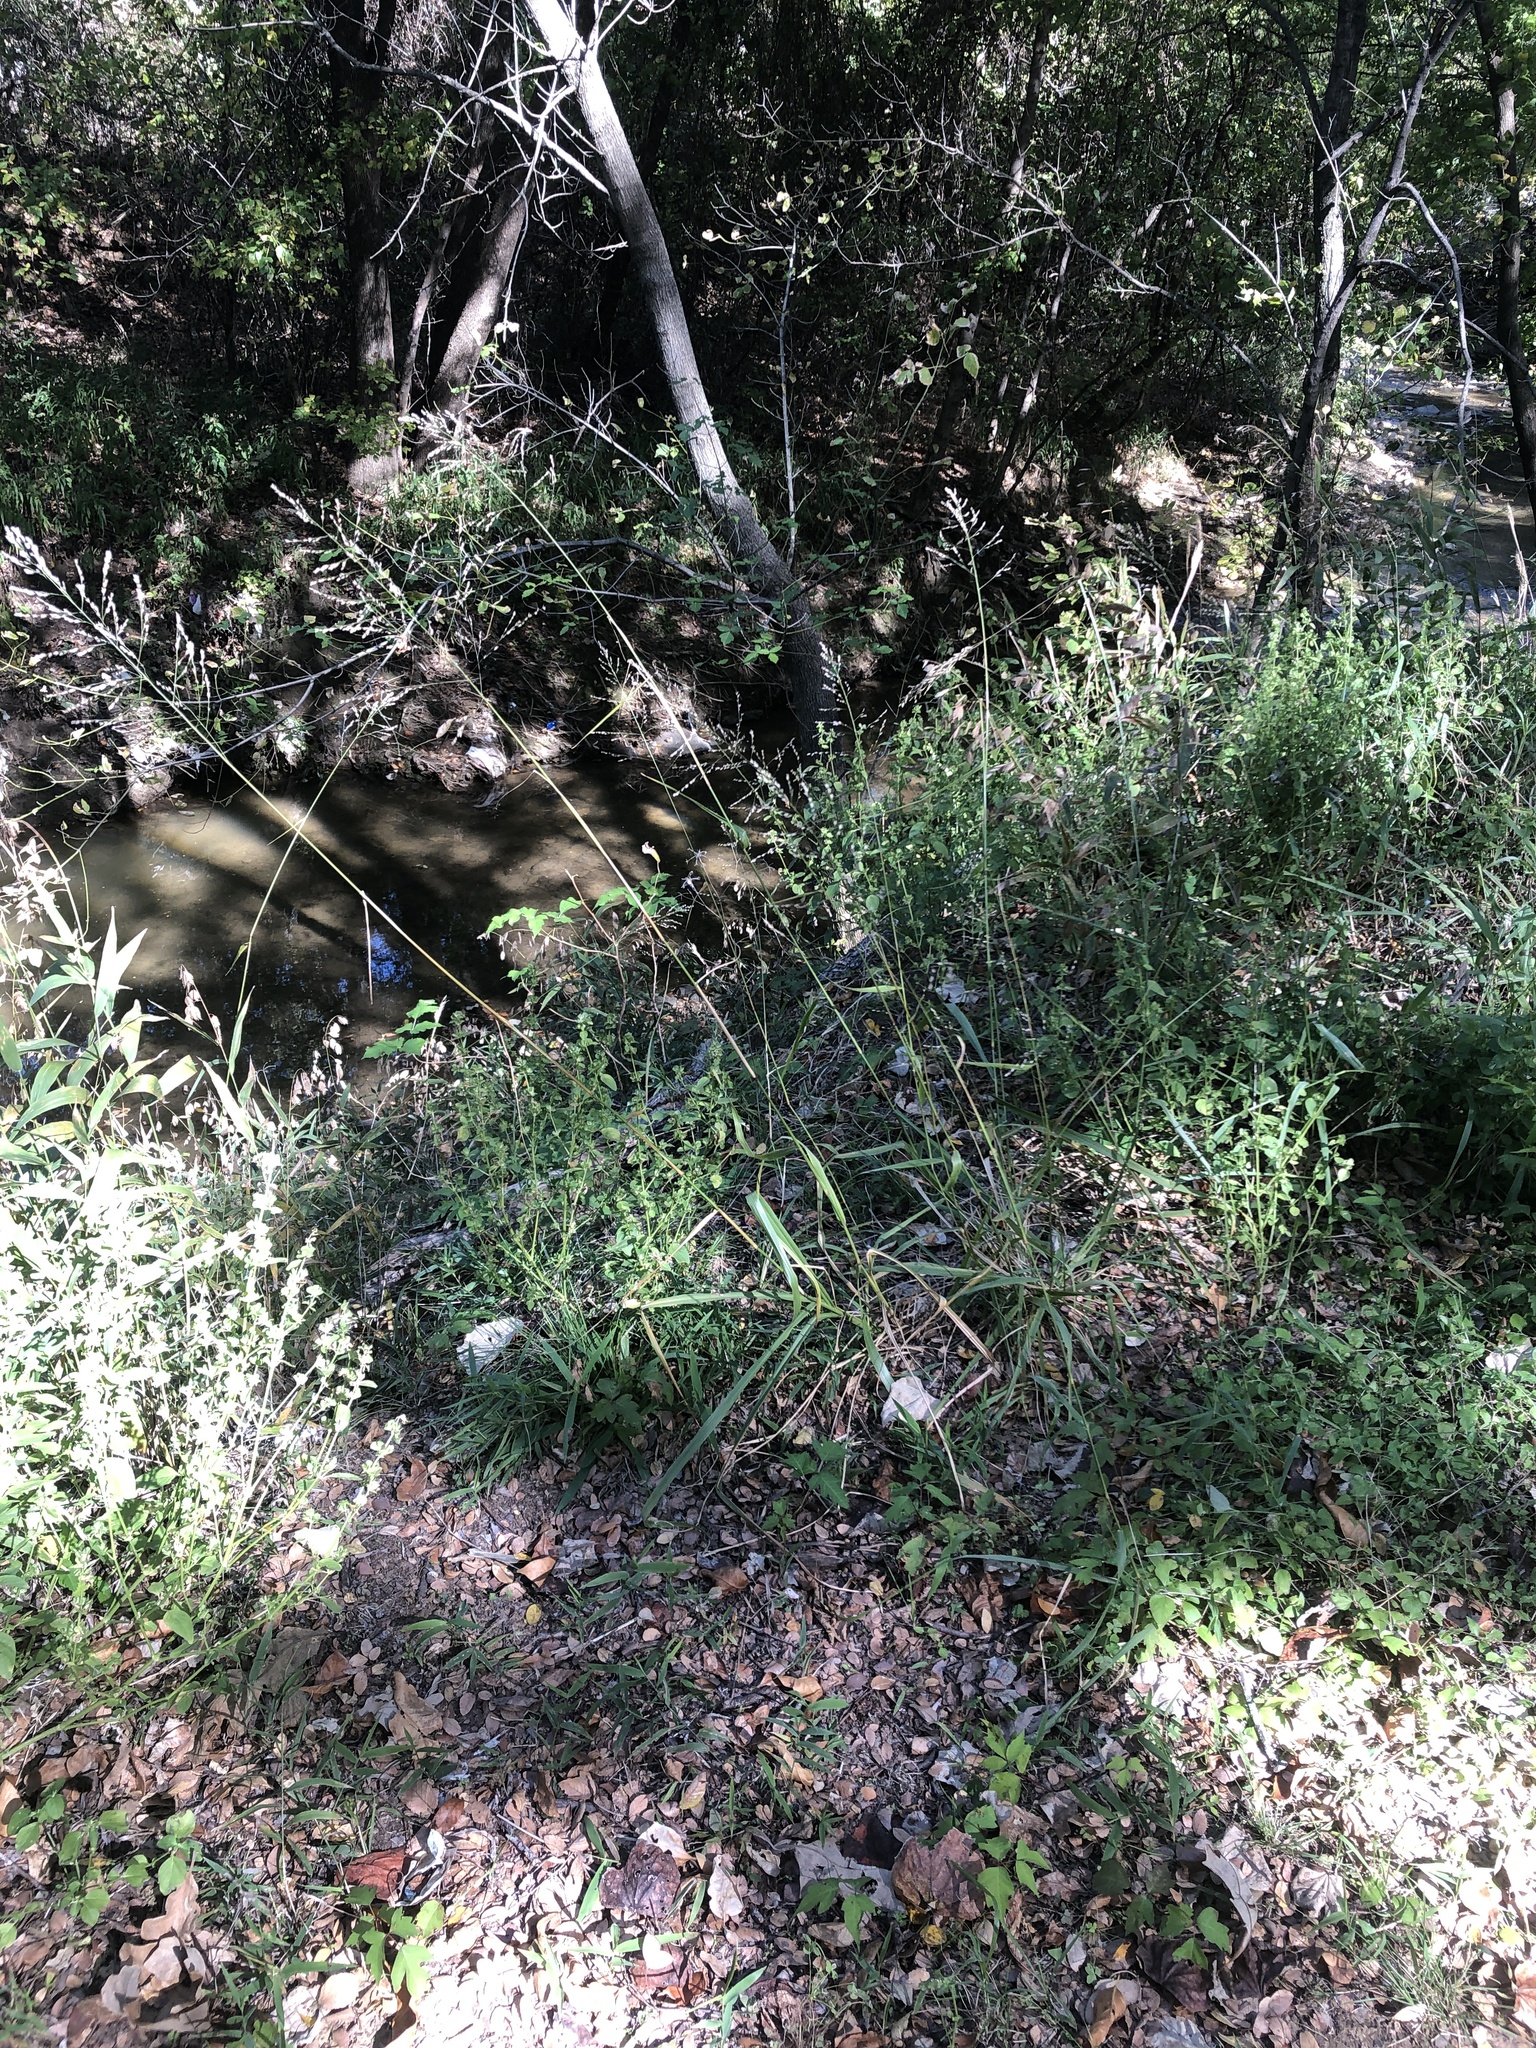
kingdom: Plantae
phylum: Tracheophyta
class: Liliopsida
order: Poales
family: Poaceae
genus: Tridens
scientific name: Tridens flavus
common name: Purpletop
